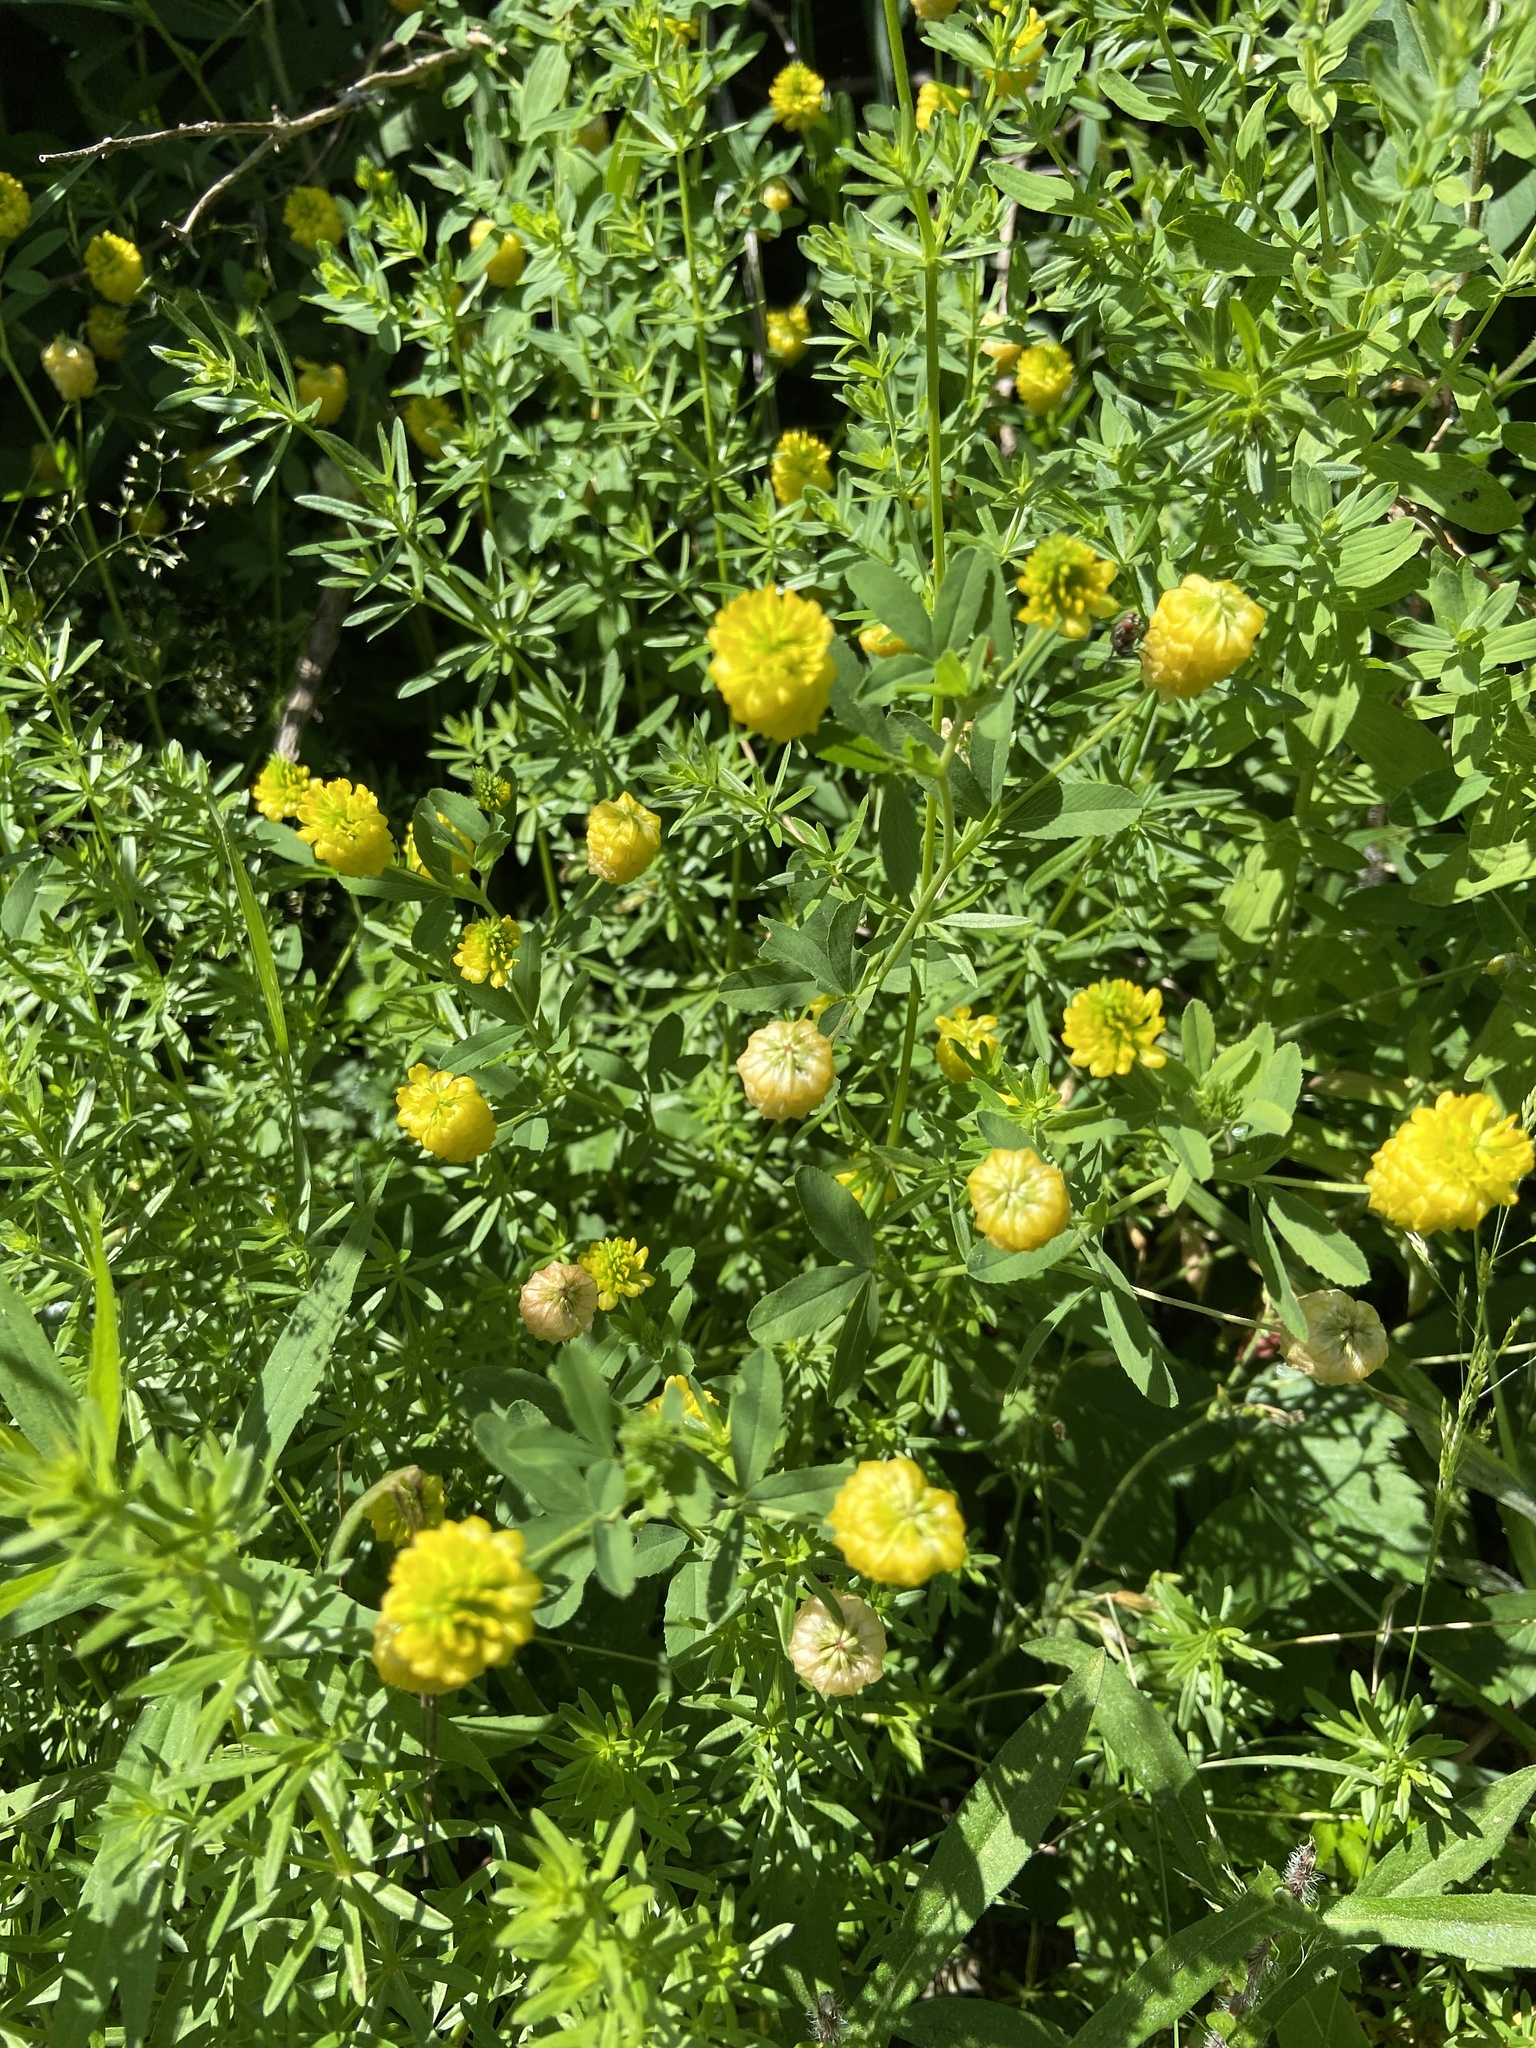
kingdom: Plantae
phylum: Tracheophyta
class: Magnoliopsida
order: Fabales
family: Fabaceae
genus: Trifolium
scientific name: Trifolium aureum
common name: Golden clover
